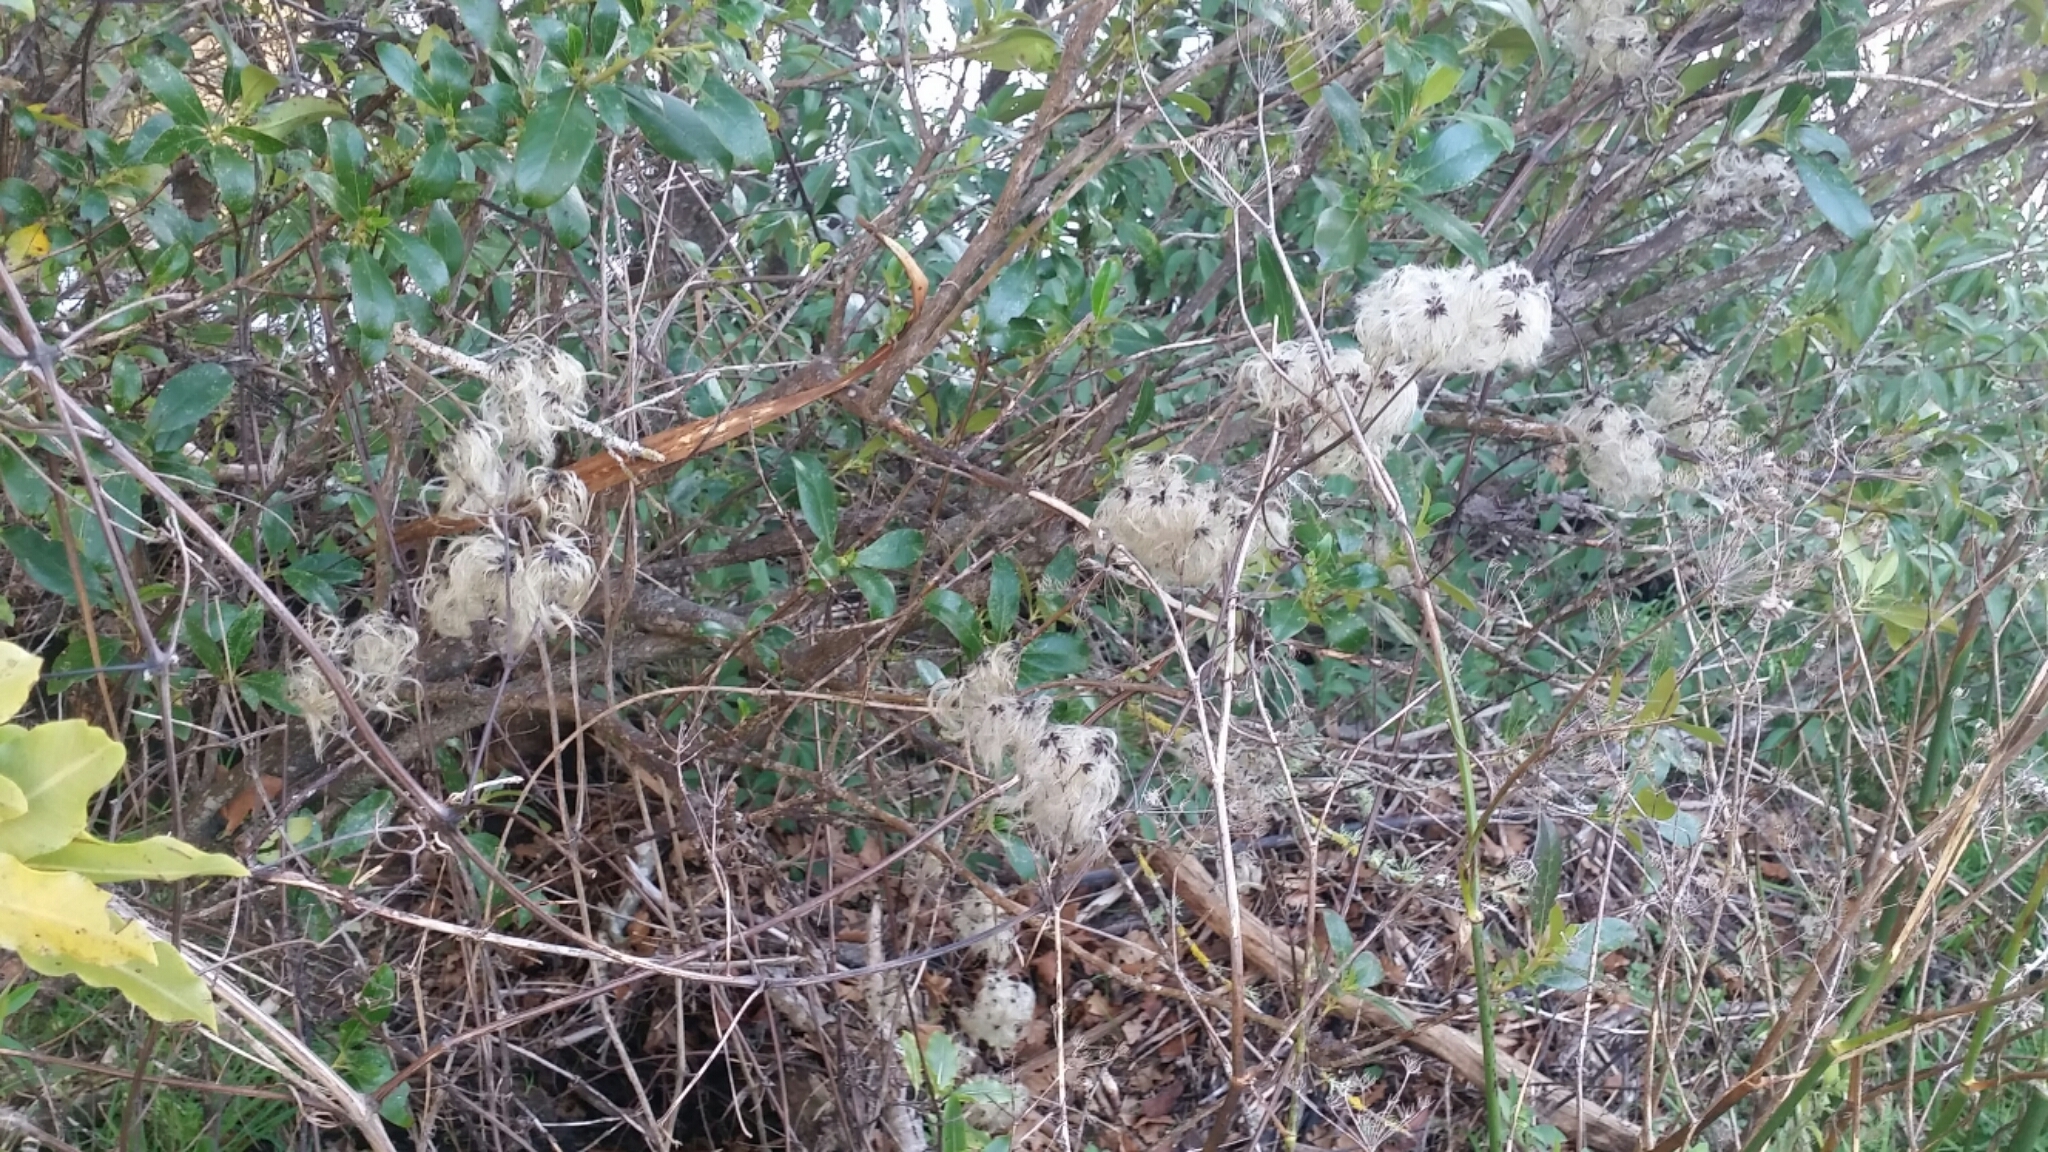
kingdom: Plantae
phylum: Tracheophyta
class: Magnoliopsida
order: Ranunculales
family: Ranunculaceae
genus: Clematis
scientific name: Clematis vitalba
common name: Evergreen clematis
